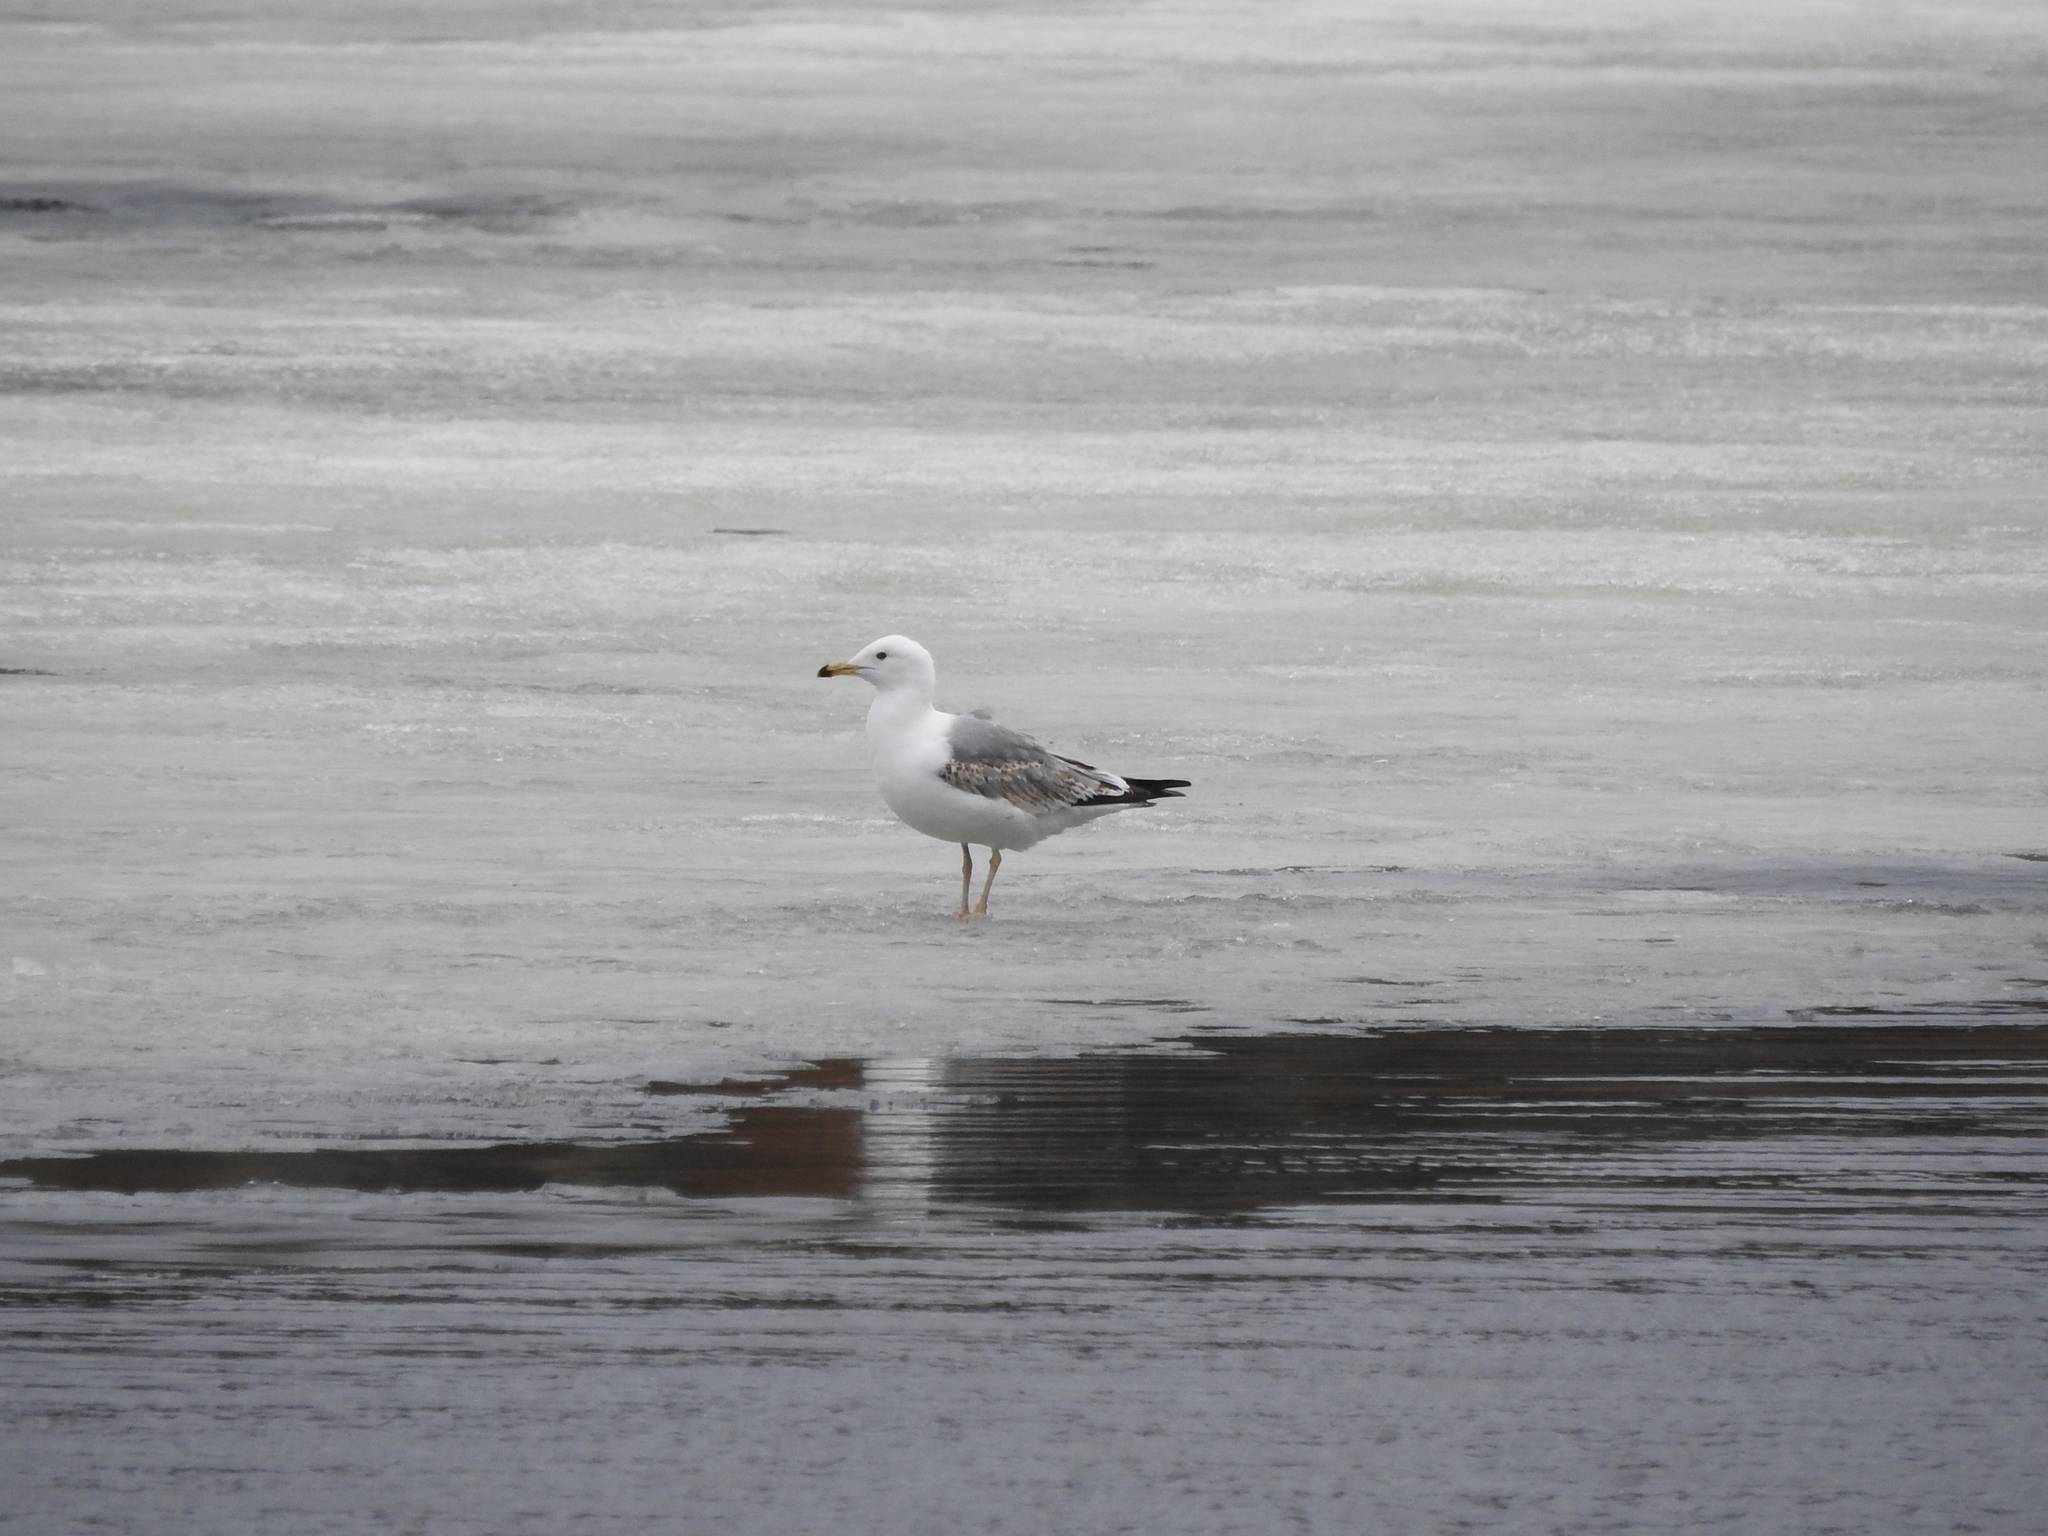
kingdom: Animalia
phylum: Chordata
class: Aves
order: Charadriiformes
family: Laridae
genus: Larus
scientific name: Larus canus
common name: Mew gull
